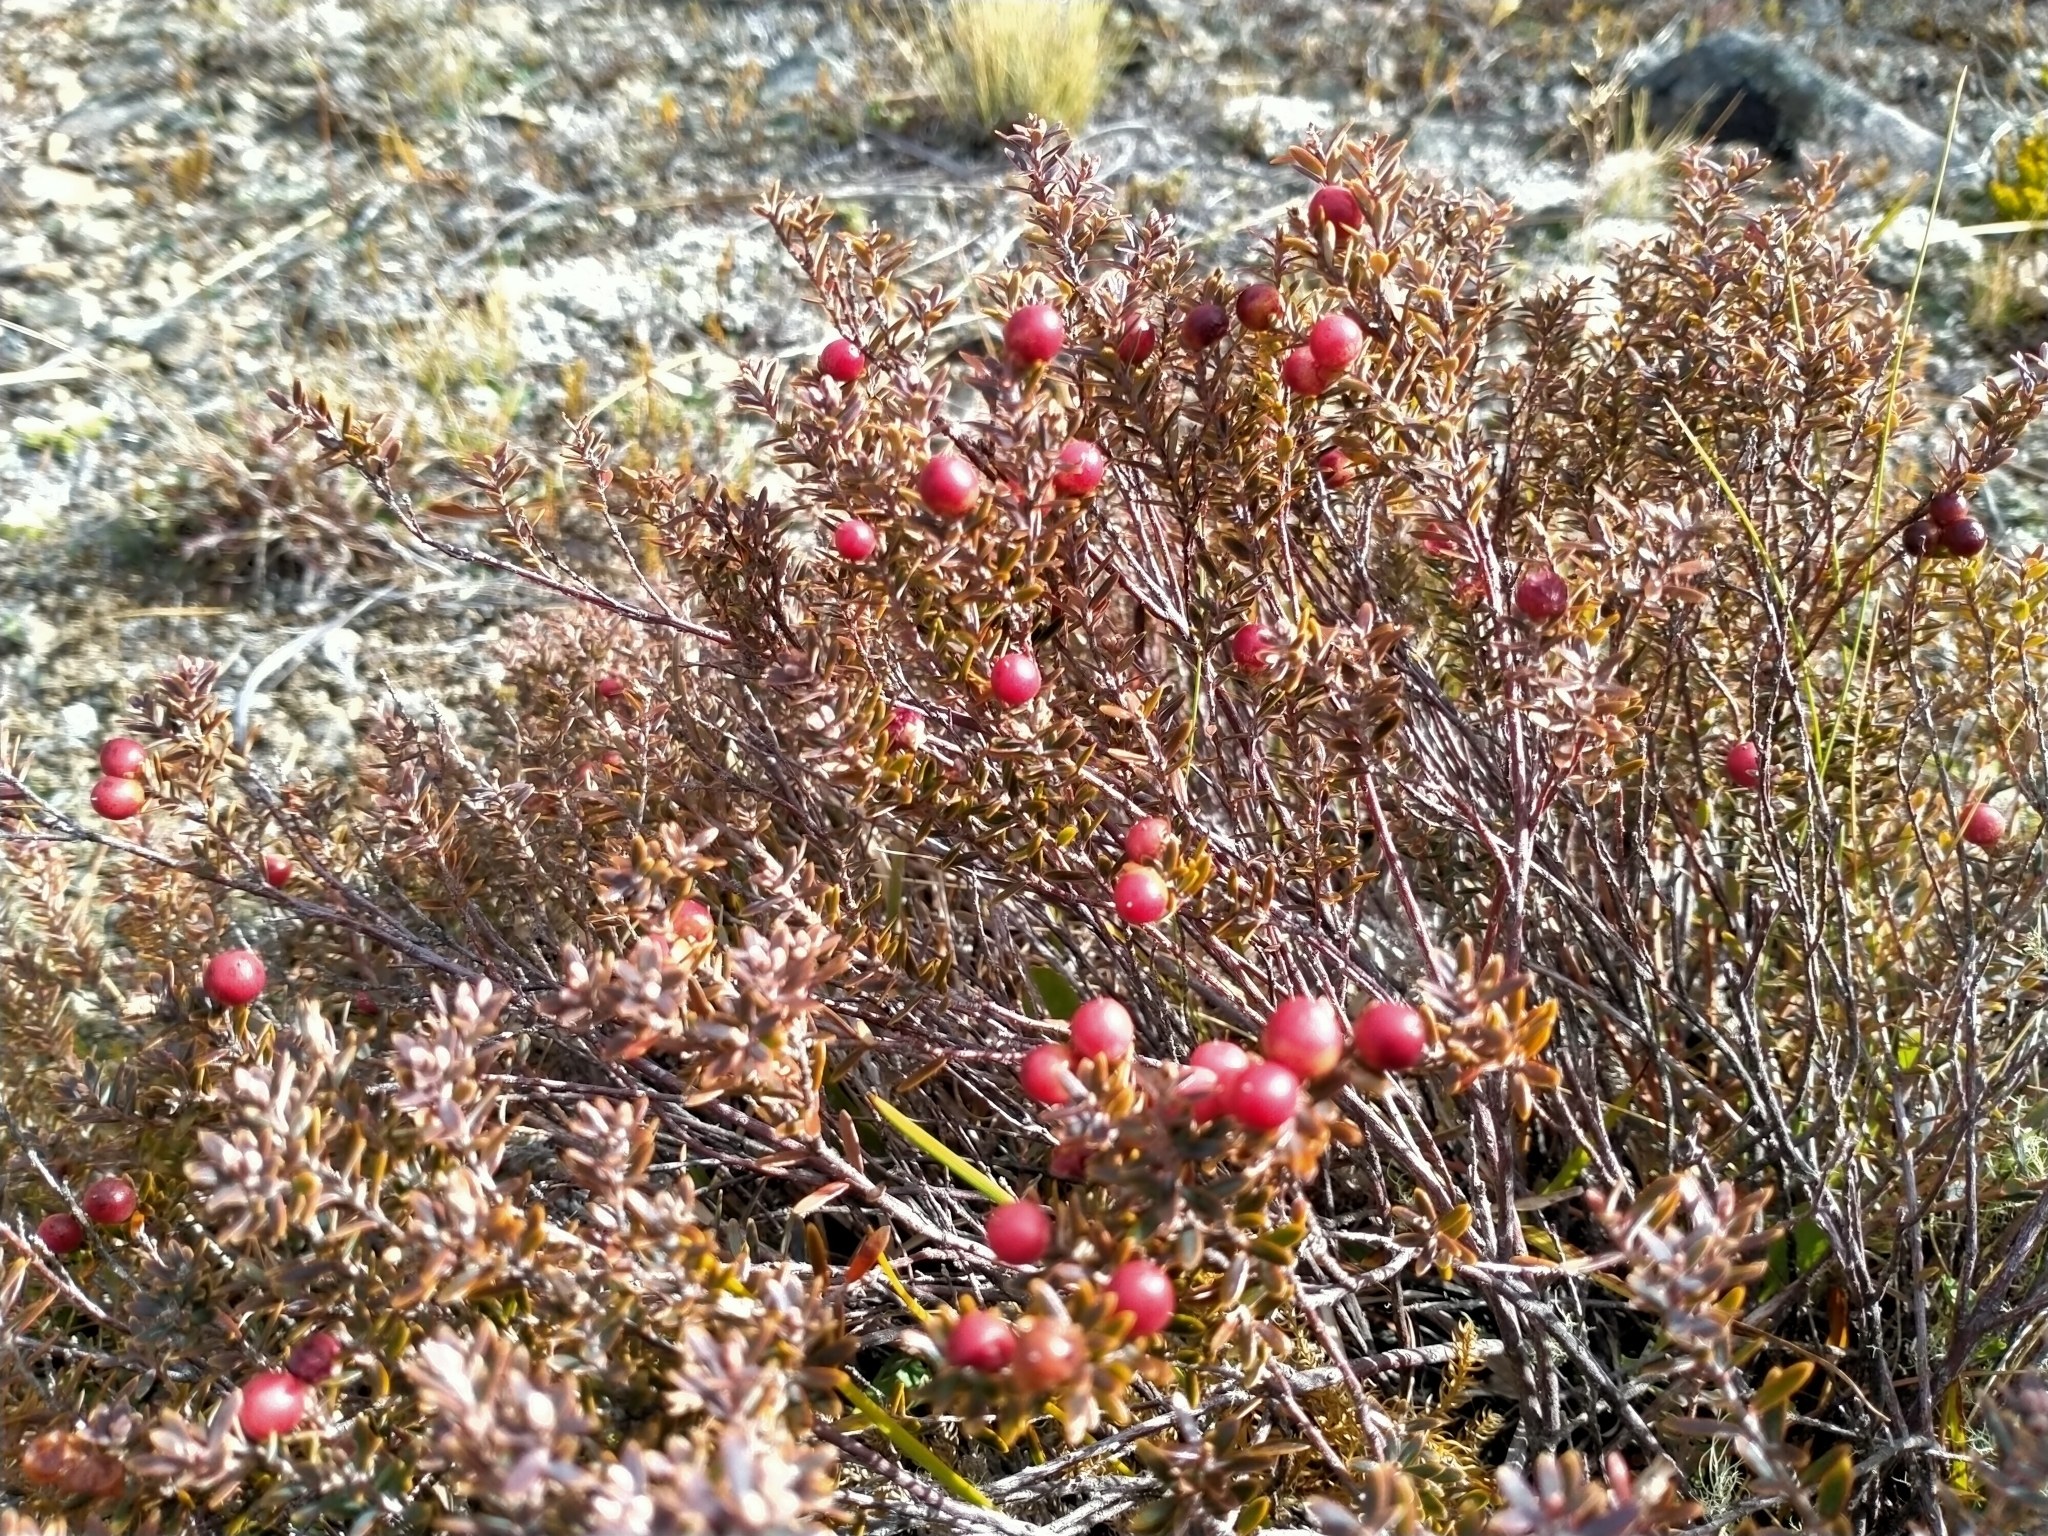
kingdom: Plantae
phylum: Tracheophyta
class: Magnoliopsida
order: Ericales
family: Ericaceae
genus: Acrothamnus
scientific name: Acrothamnus colensoi
